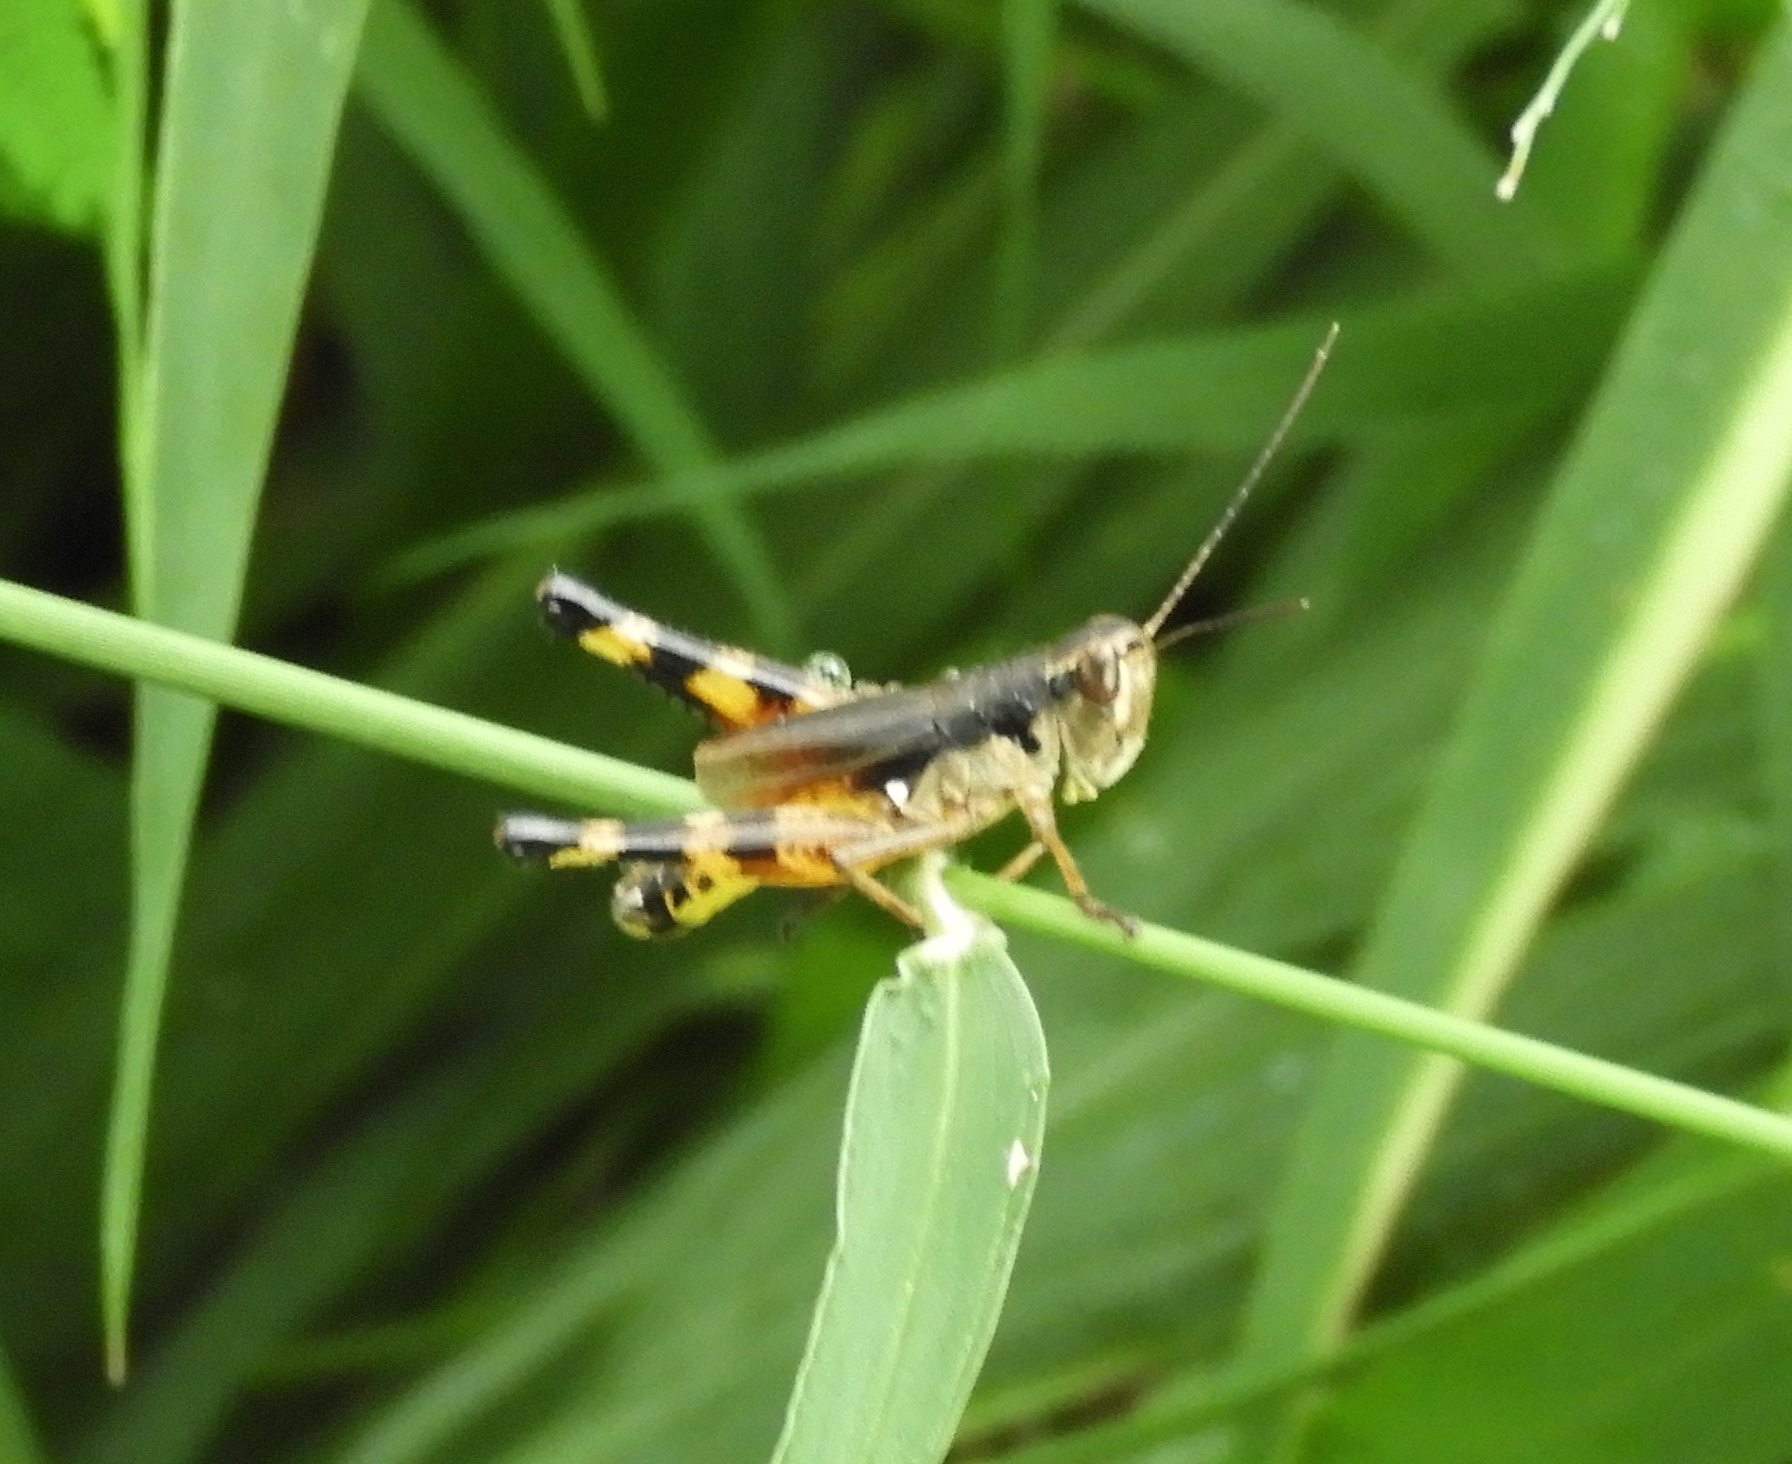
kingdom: Animalia
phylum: Arthropoda
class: Insecta
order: Orthoptera
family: Acrididae
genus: Boopedon
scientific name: Boopedon flaviventris
